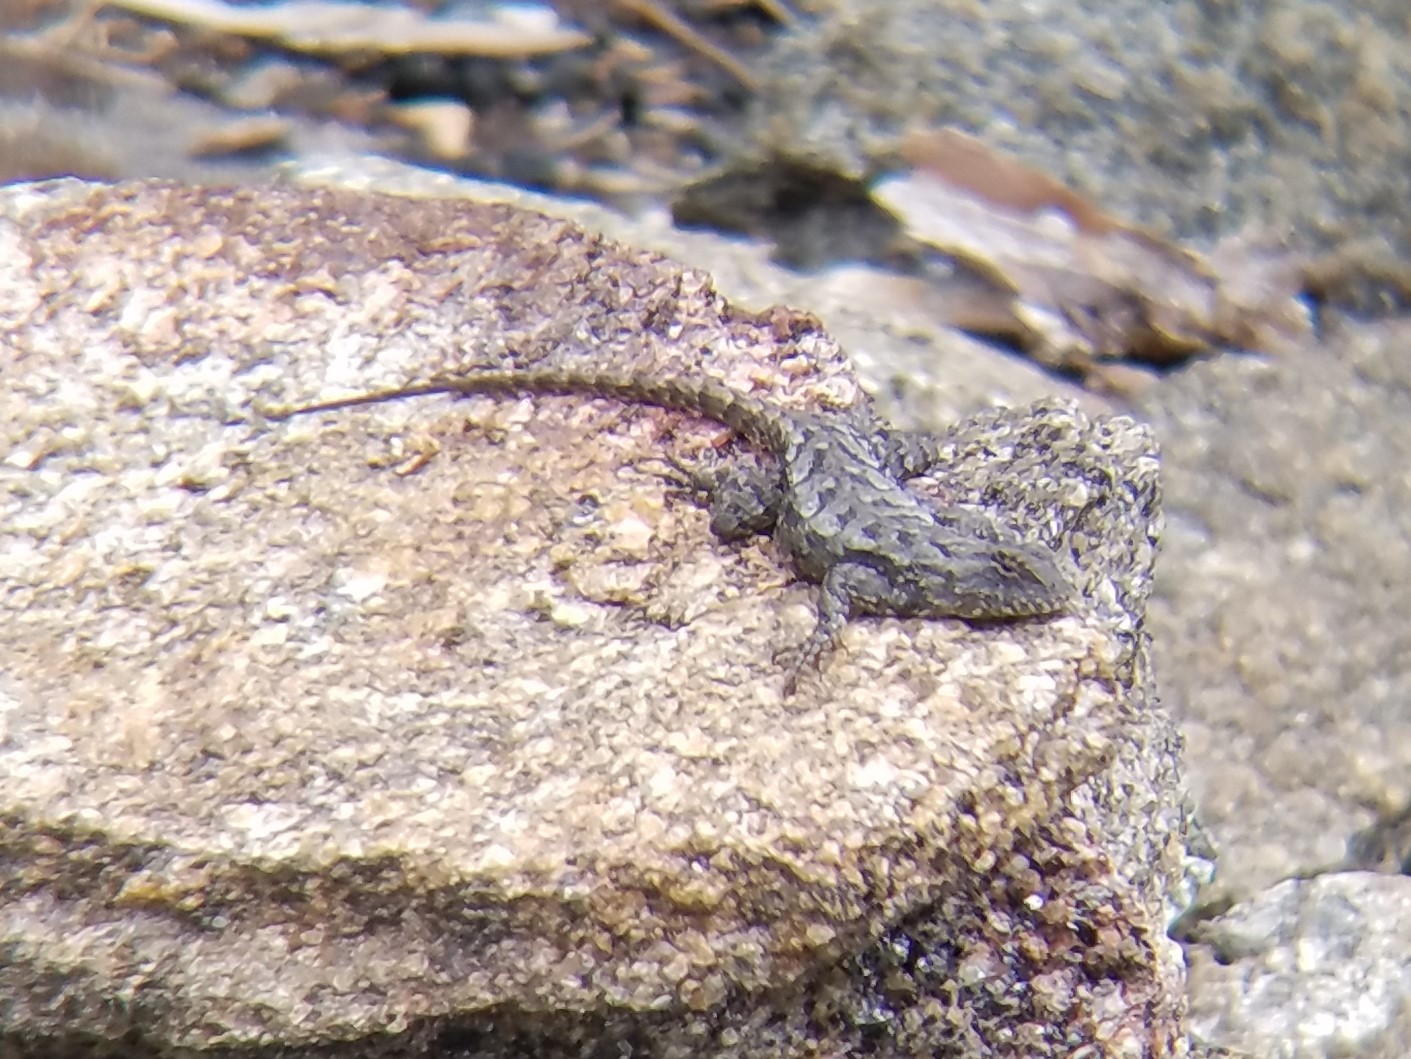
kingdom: Animalia
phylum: Chordata
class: Squamata
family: Phrynosomatidae
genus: Sceloporus
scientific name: Sceloporus undulatus
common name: Eastern fence lizard
